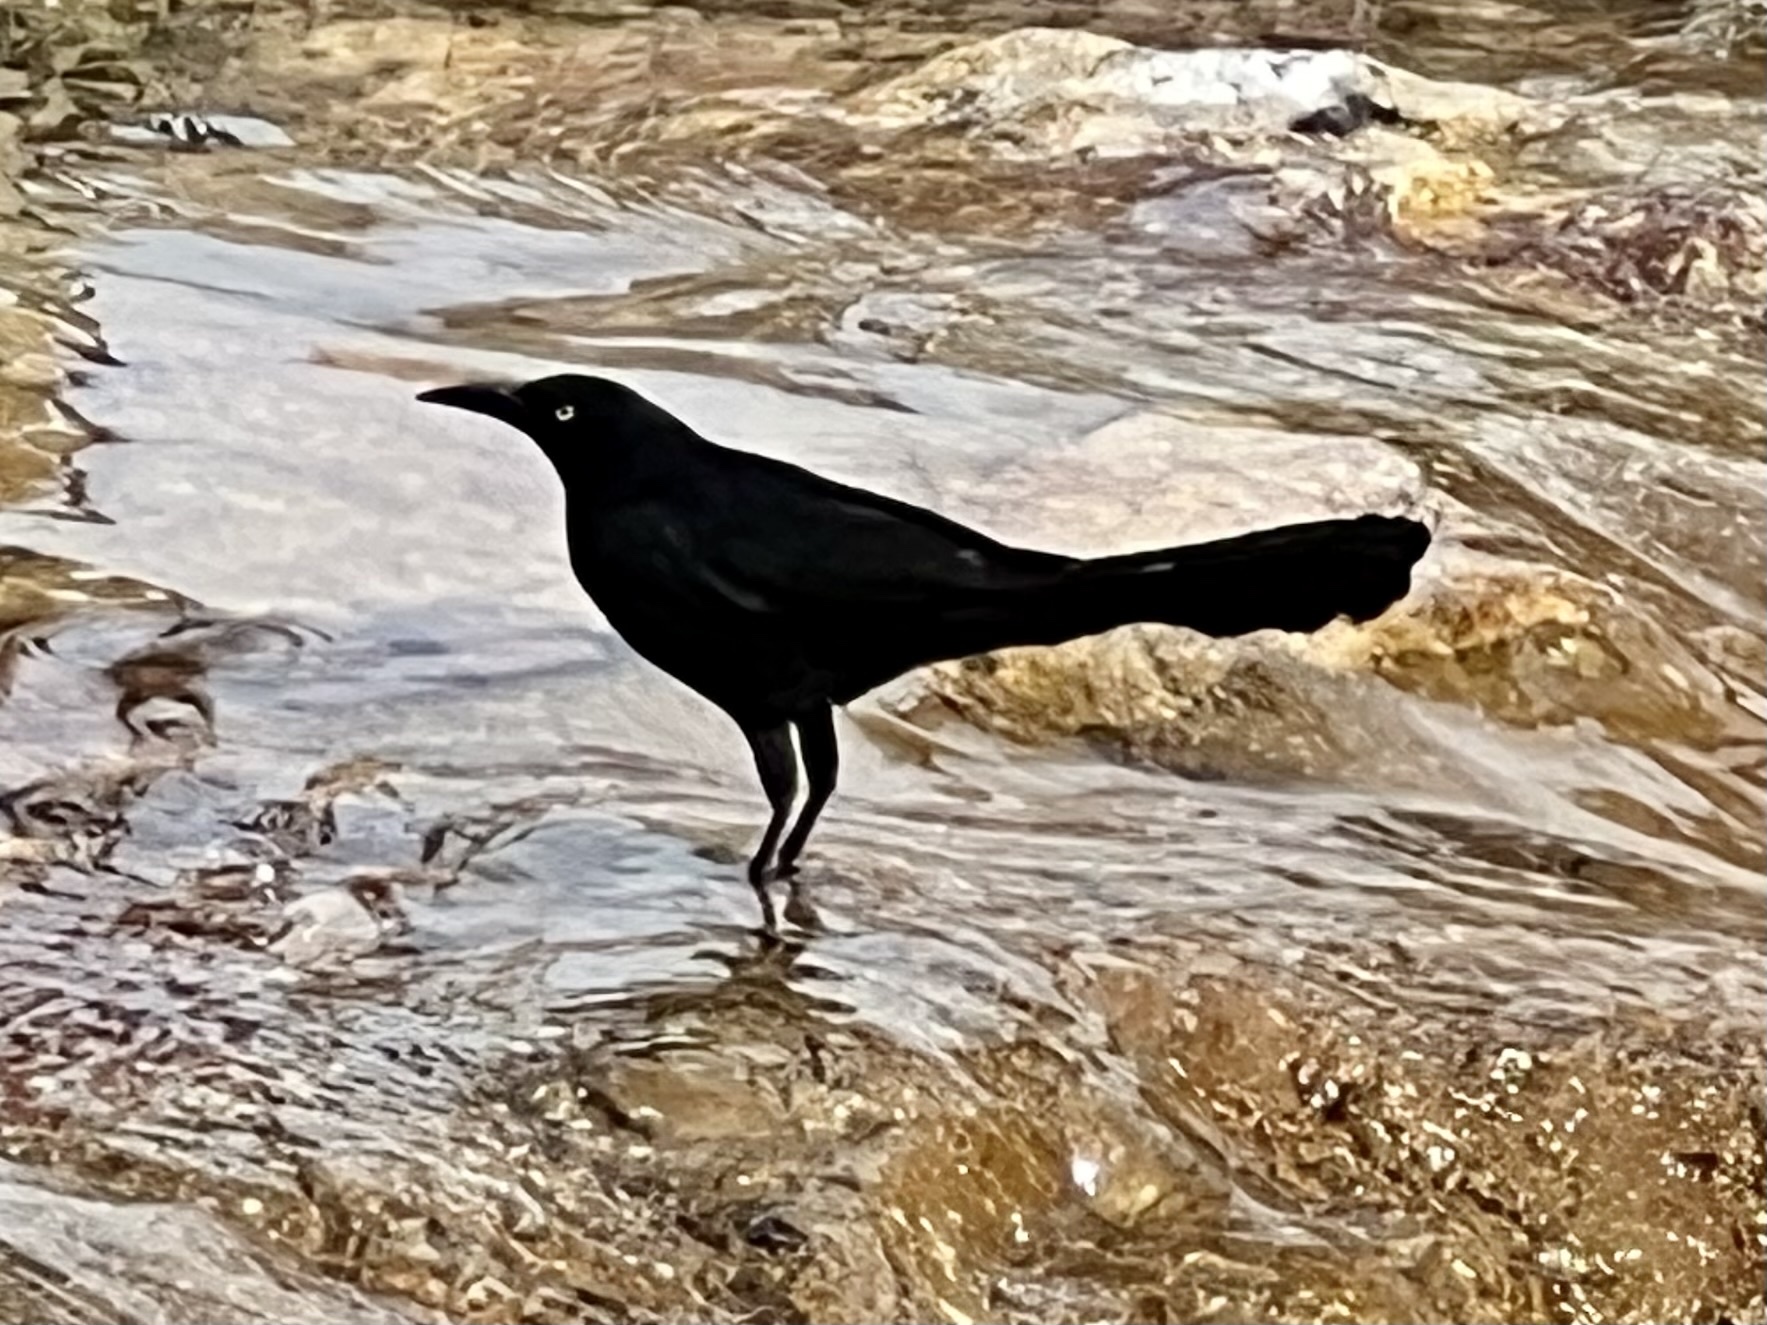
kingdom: Animalia
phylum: Chordata
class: Aves
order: Passeriformes
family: Icteridae
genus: Quiscalus
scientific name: Quiscalus mexicanus
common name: Great-tailed grackle
